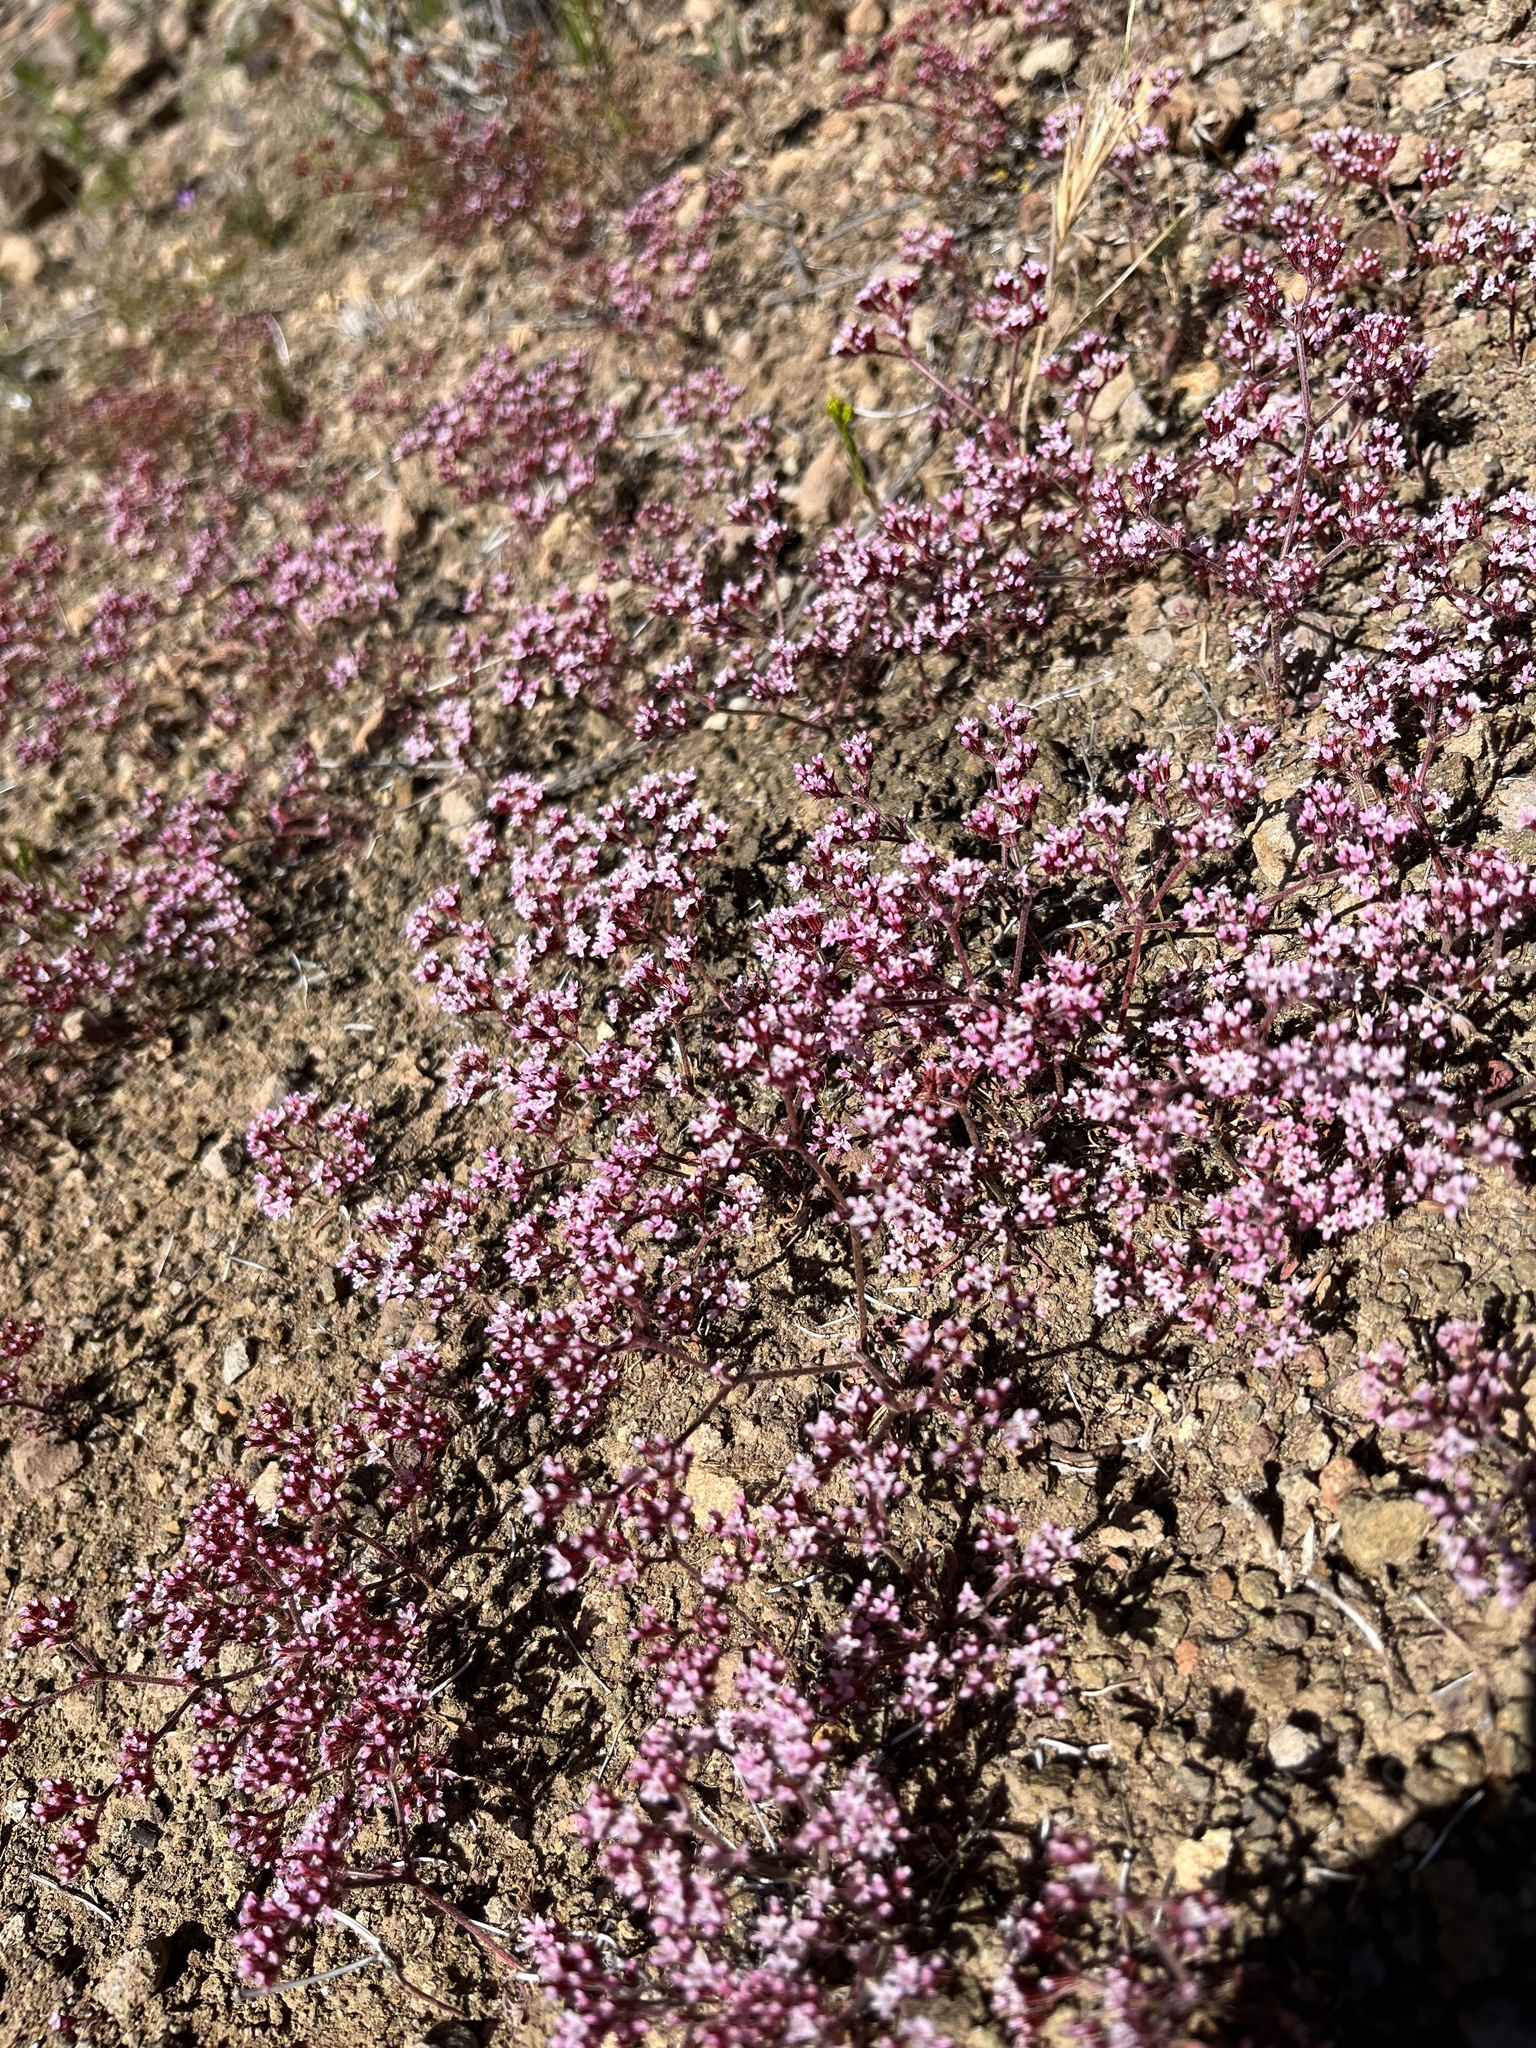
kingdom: Plantae
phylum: Tracheophyta
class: Magnoliopsida
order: Caryophyllales
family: Polygonaceae
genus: Chorizanthe
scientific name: Chorizanthe staticoides
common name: Turkish rugging
